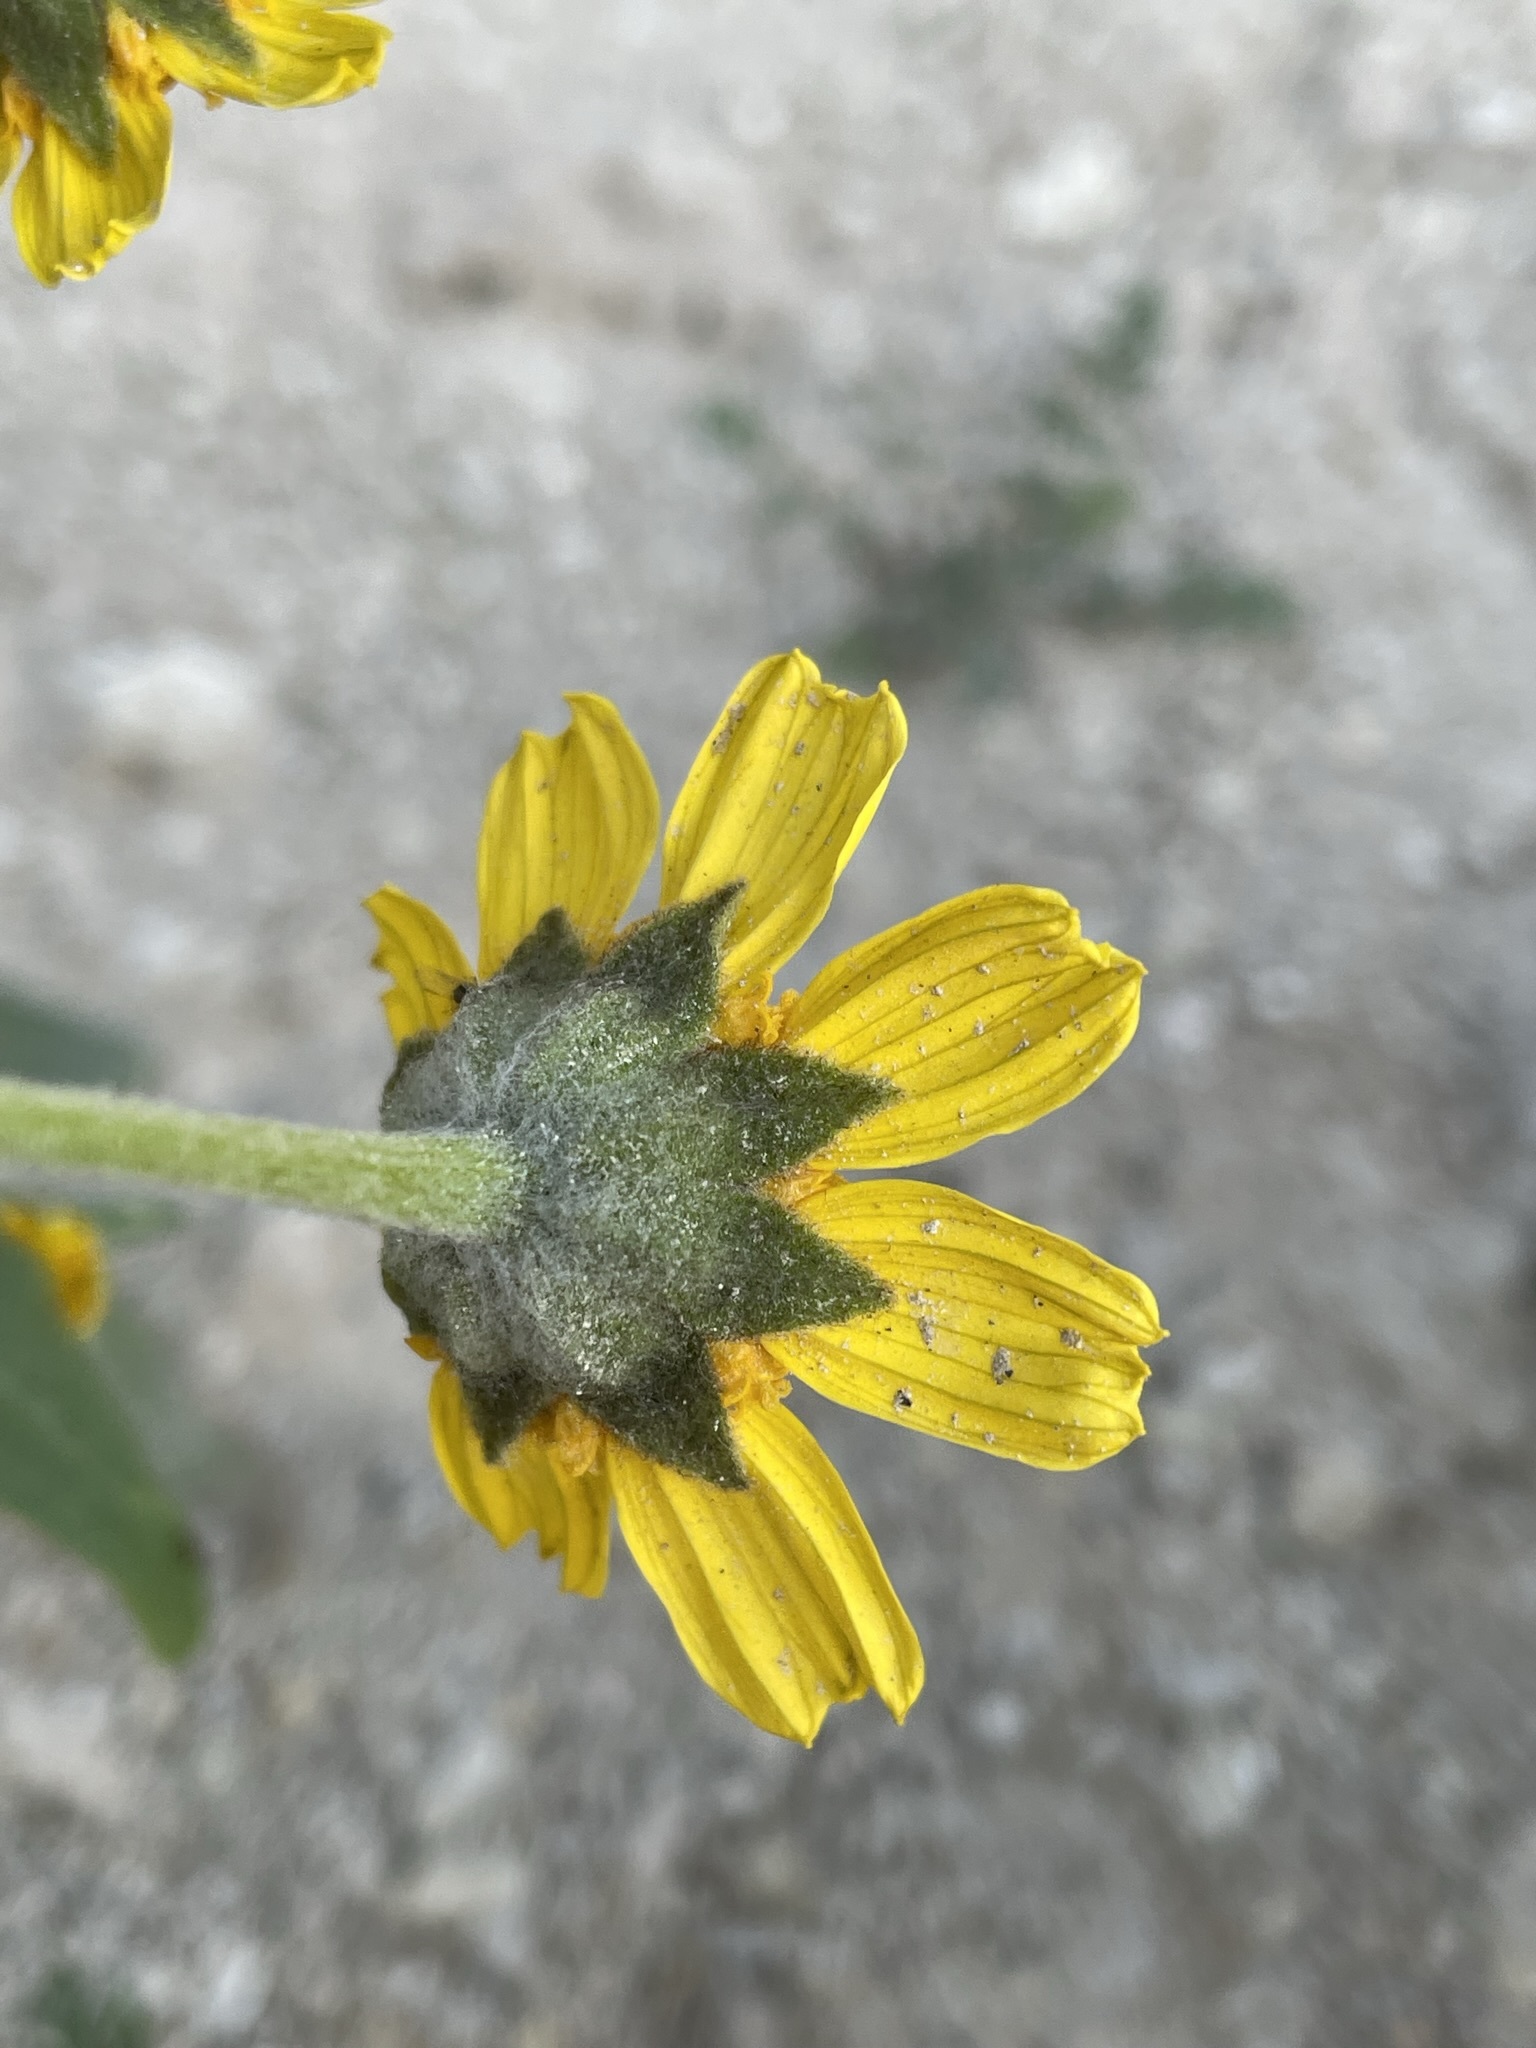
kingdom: Plantae
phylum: Tracheophyta
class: Magnoliopsida
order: Asterales
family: Asteraceae
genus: Monolopia
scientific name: Monolopia lanceolata
